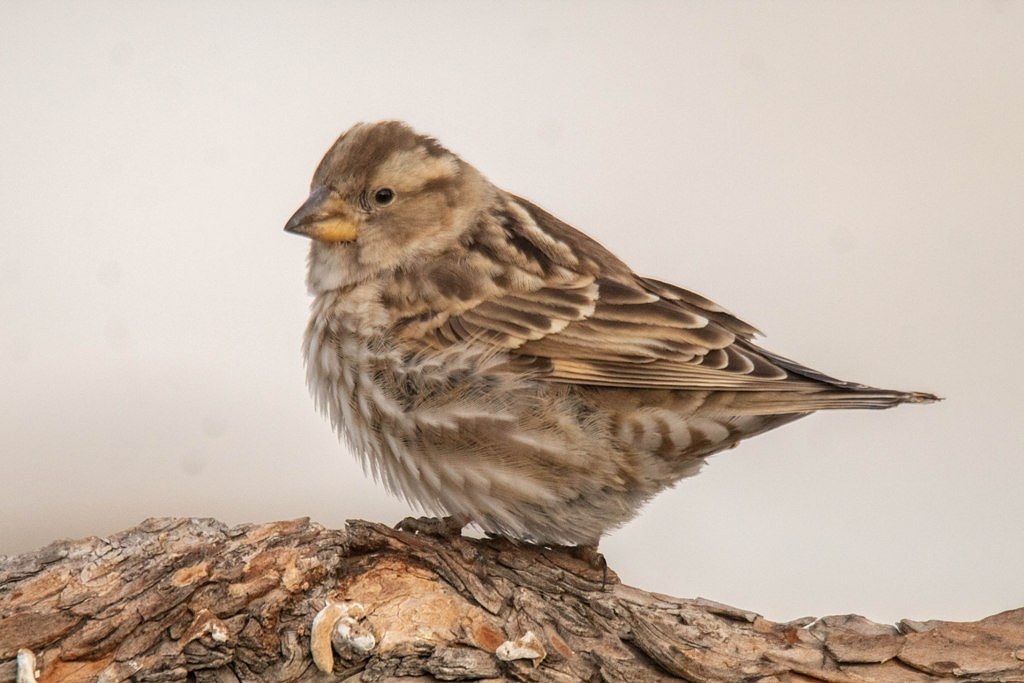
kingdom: Animalia
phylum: Chordata
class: Aves
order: Passeriformes
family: Passeridae
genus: Petronia
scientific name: Petronia petronia
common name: Rock sparrow
